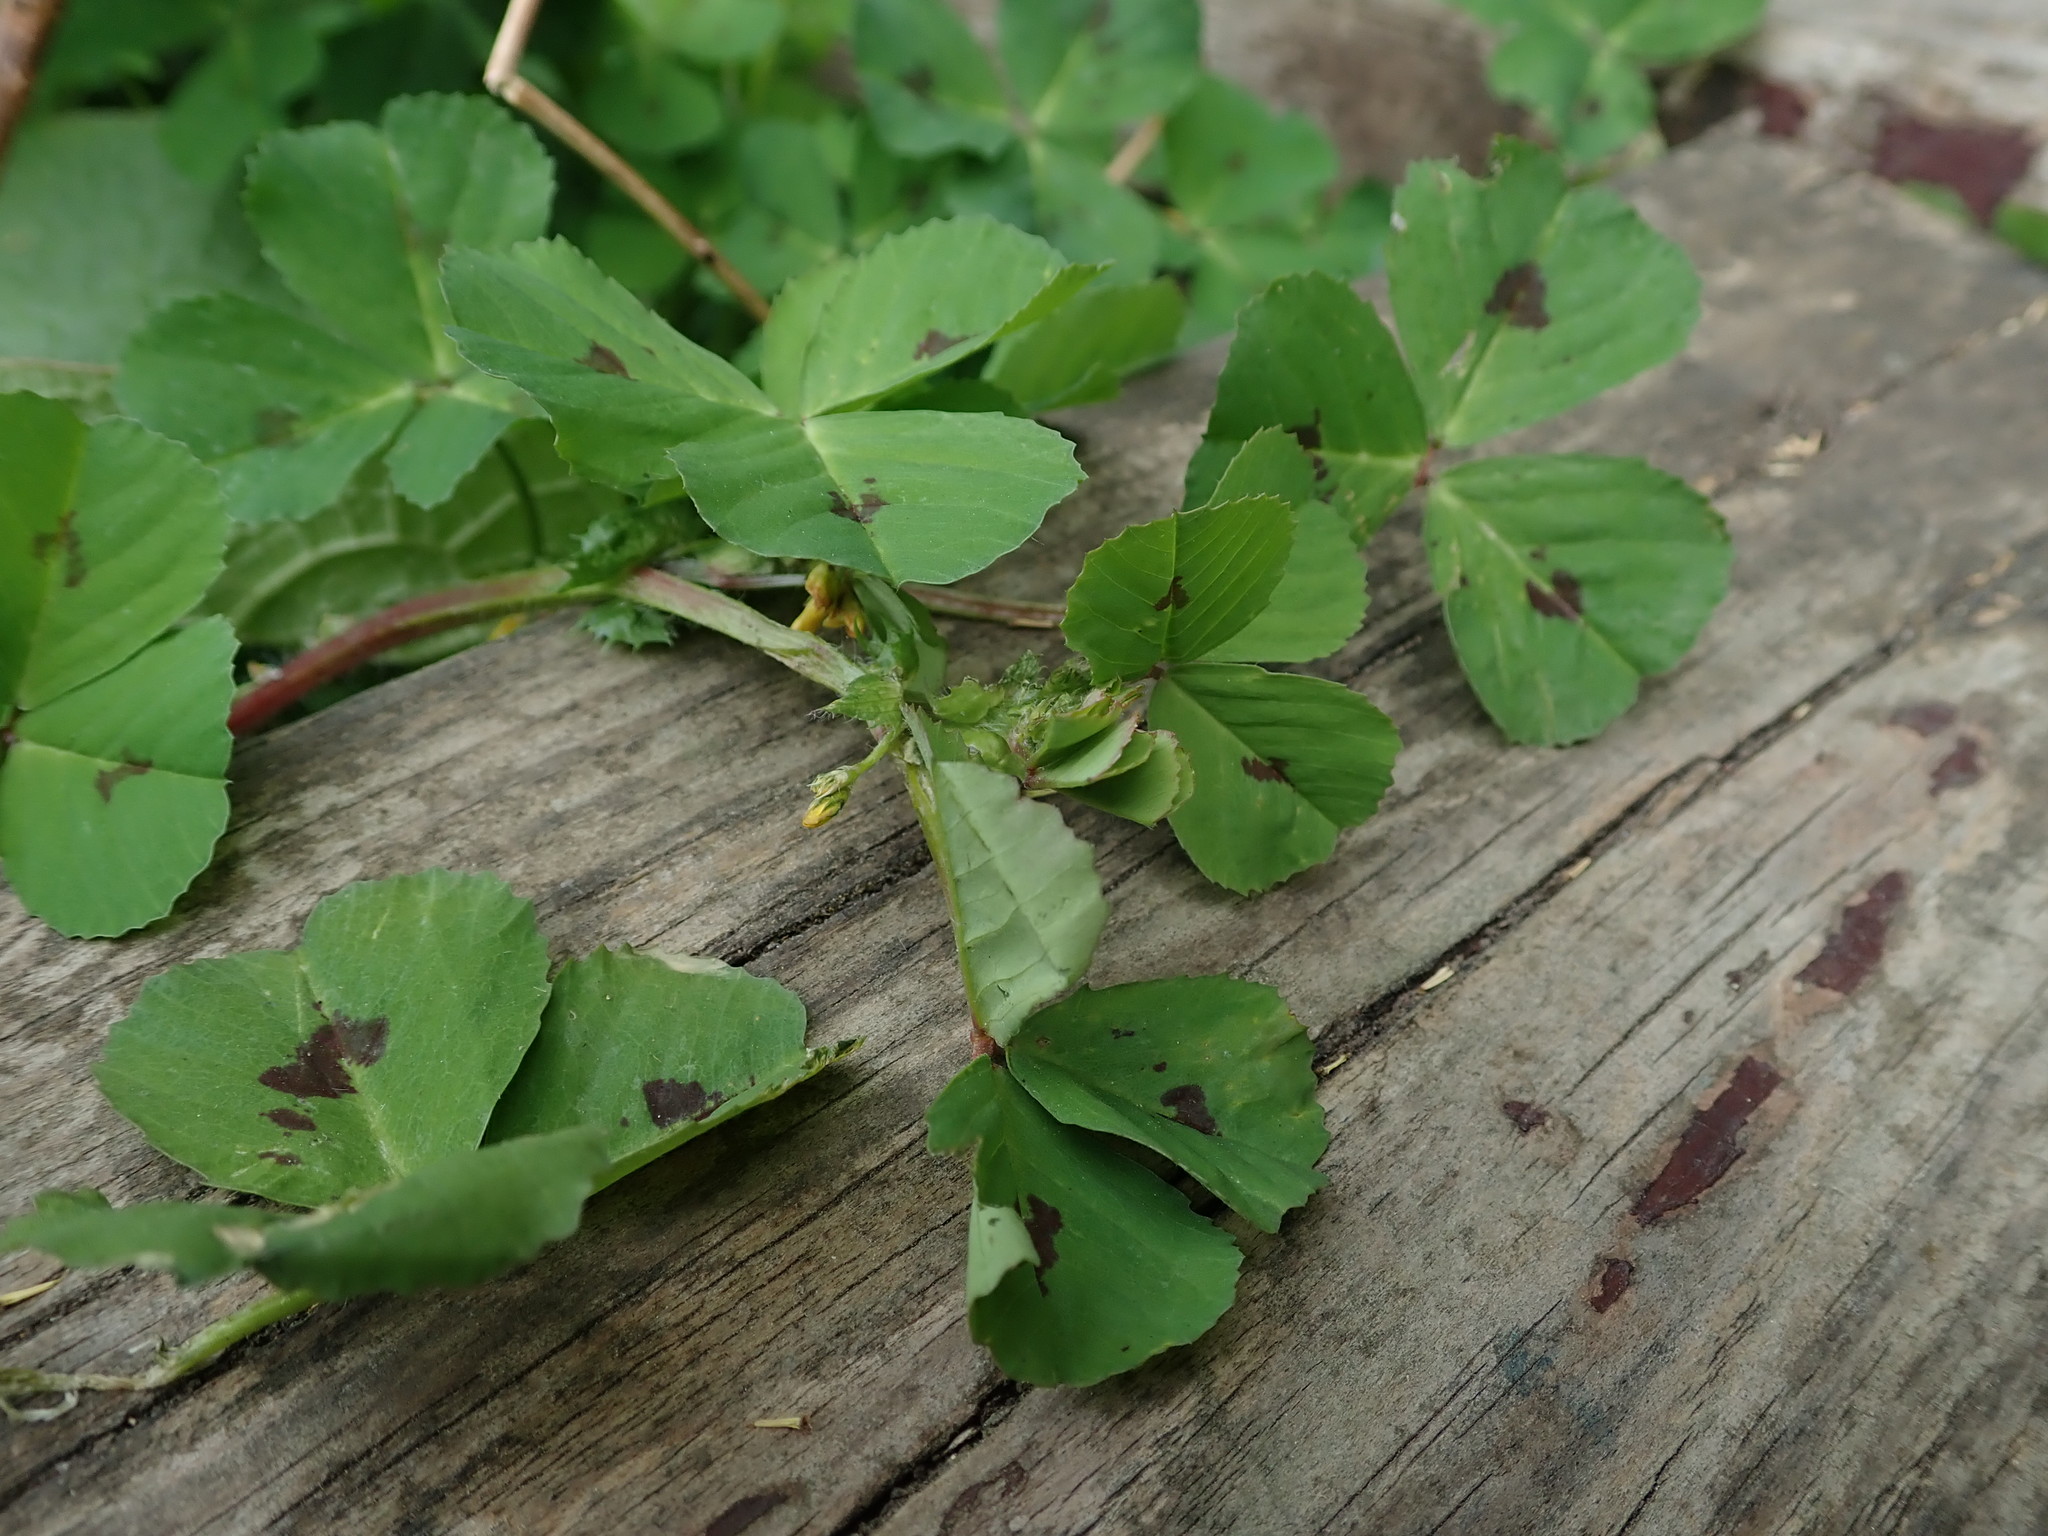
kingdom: Plantae
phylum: Tracheophyta
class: Magnoliopsida
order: Fabales
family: Fabaceae
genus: Medicago
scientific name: Medicago arabica
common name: Spotted medick
